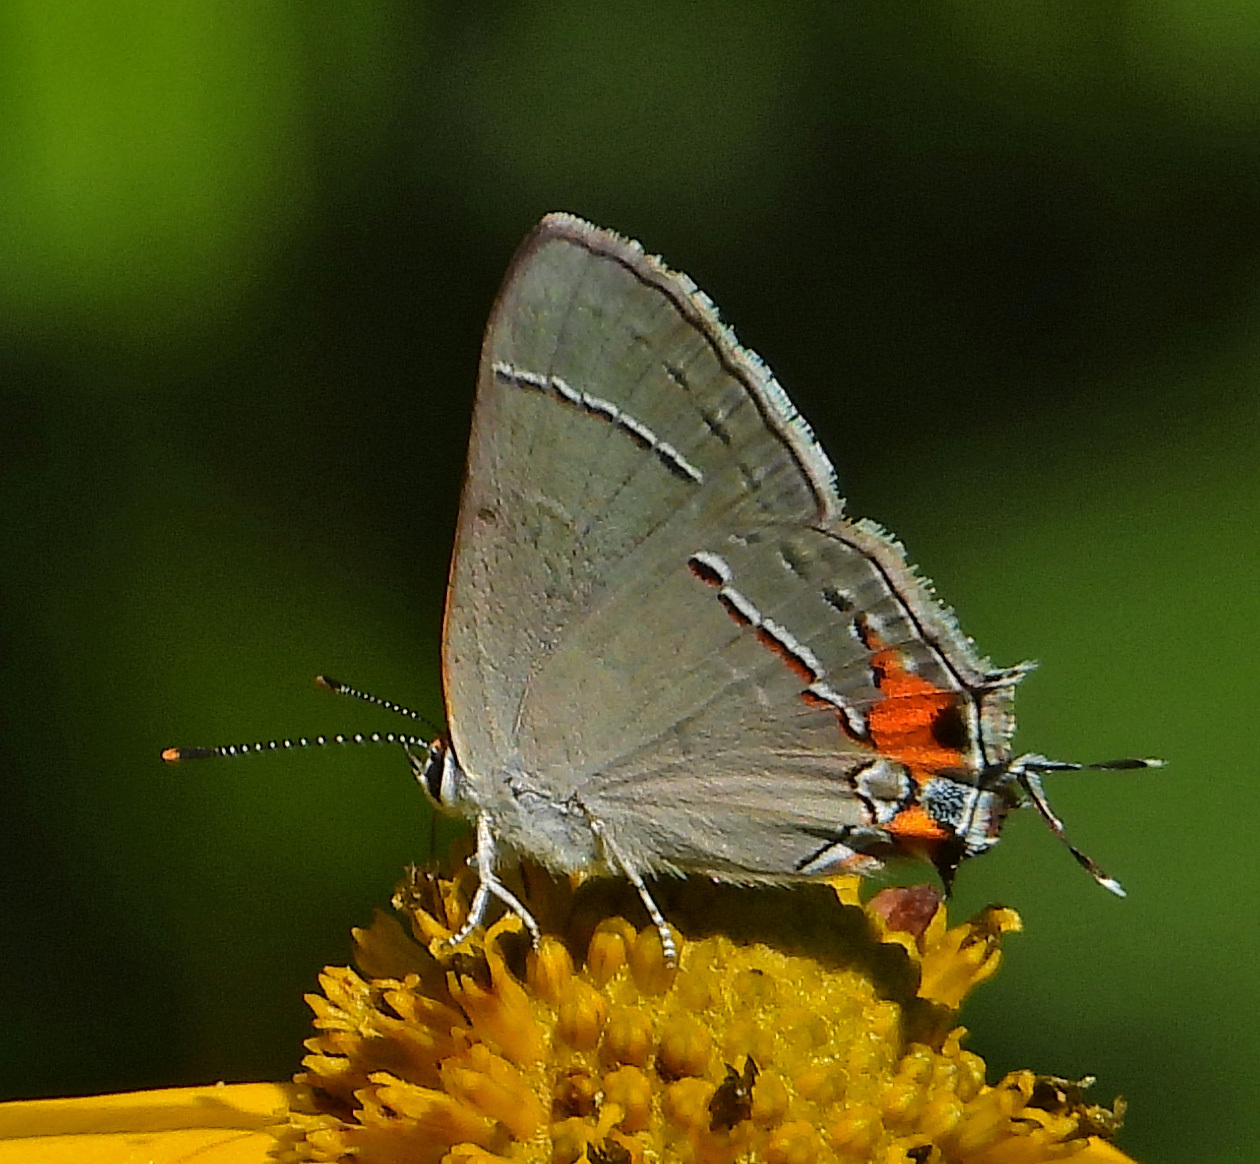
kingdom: Animalia
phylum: Arthropoda
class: Insecta
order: Lepidoptera
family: Lycaenidae
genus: Strymon
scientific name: Strymon melinus
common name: Gray hairstreak
